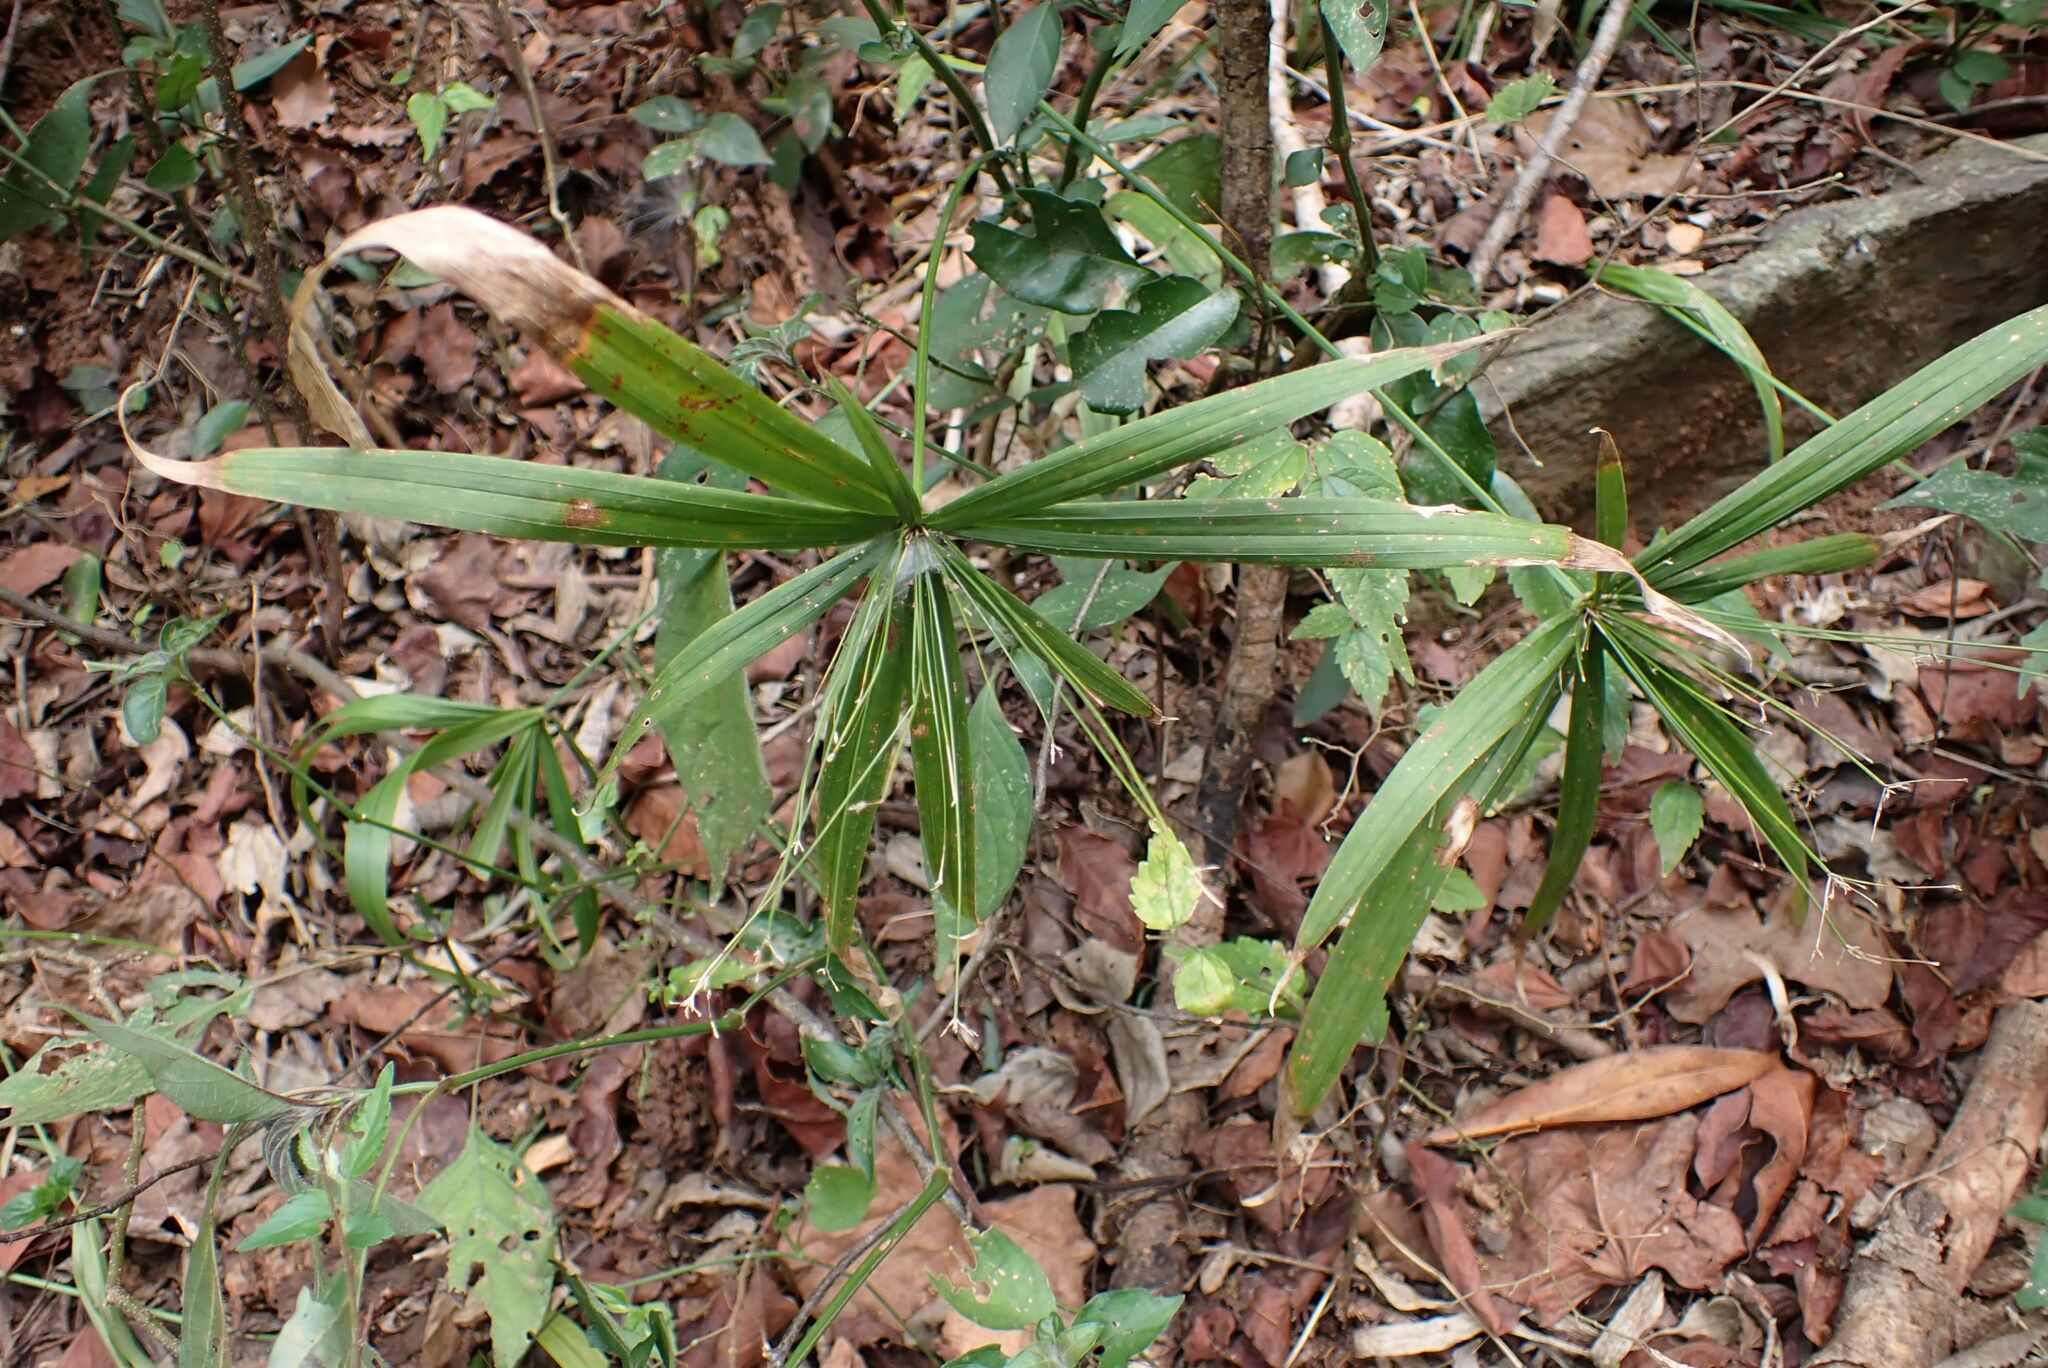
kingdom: Plantae
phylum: Tracheophyta
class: Liliopsida
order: Poales
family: Cyperaceae
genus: Cyperus
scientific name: Cyperus albostriatus
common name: Dwarf umbrella-grass
